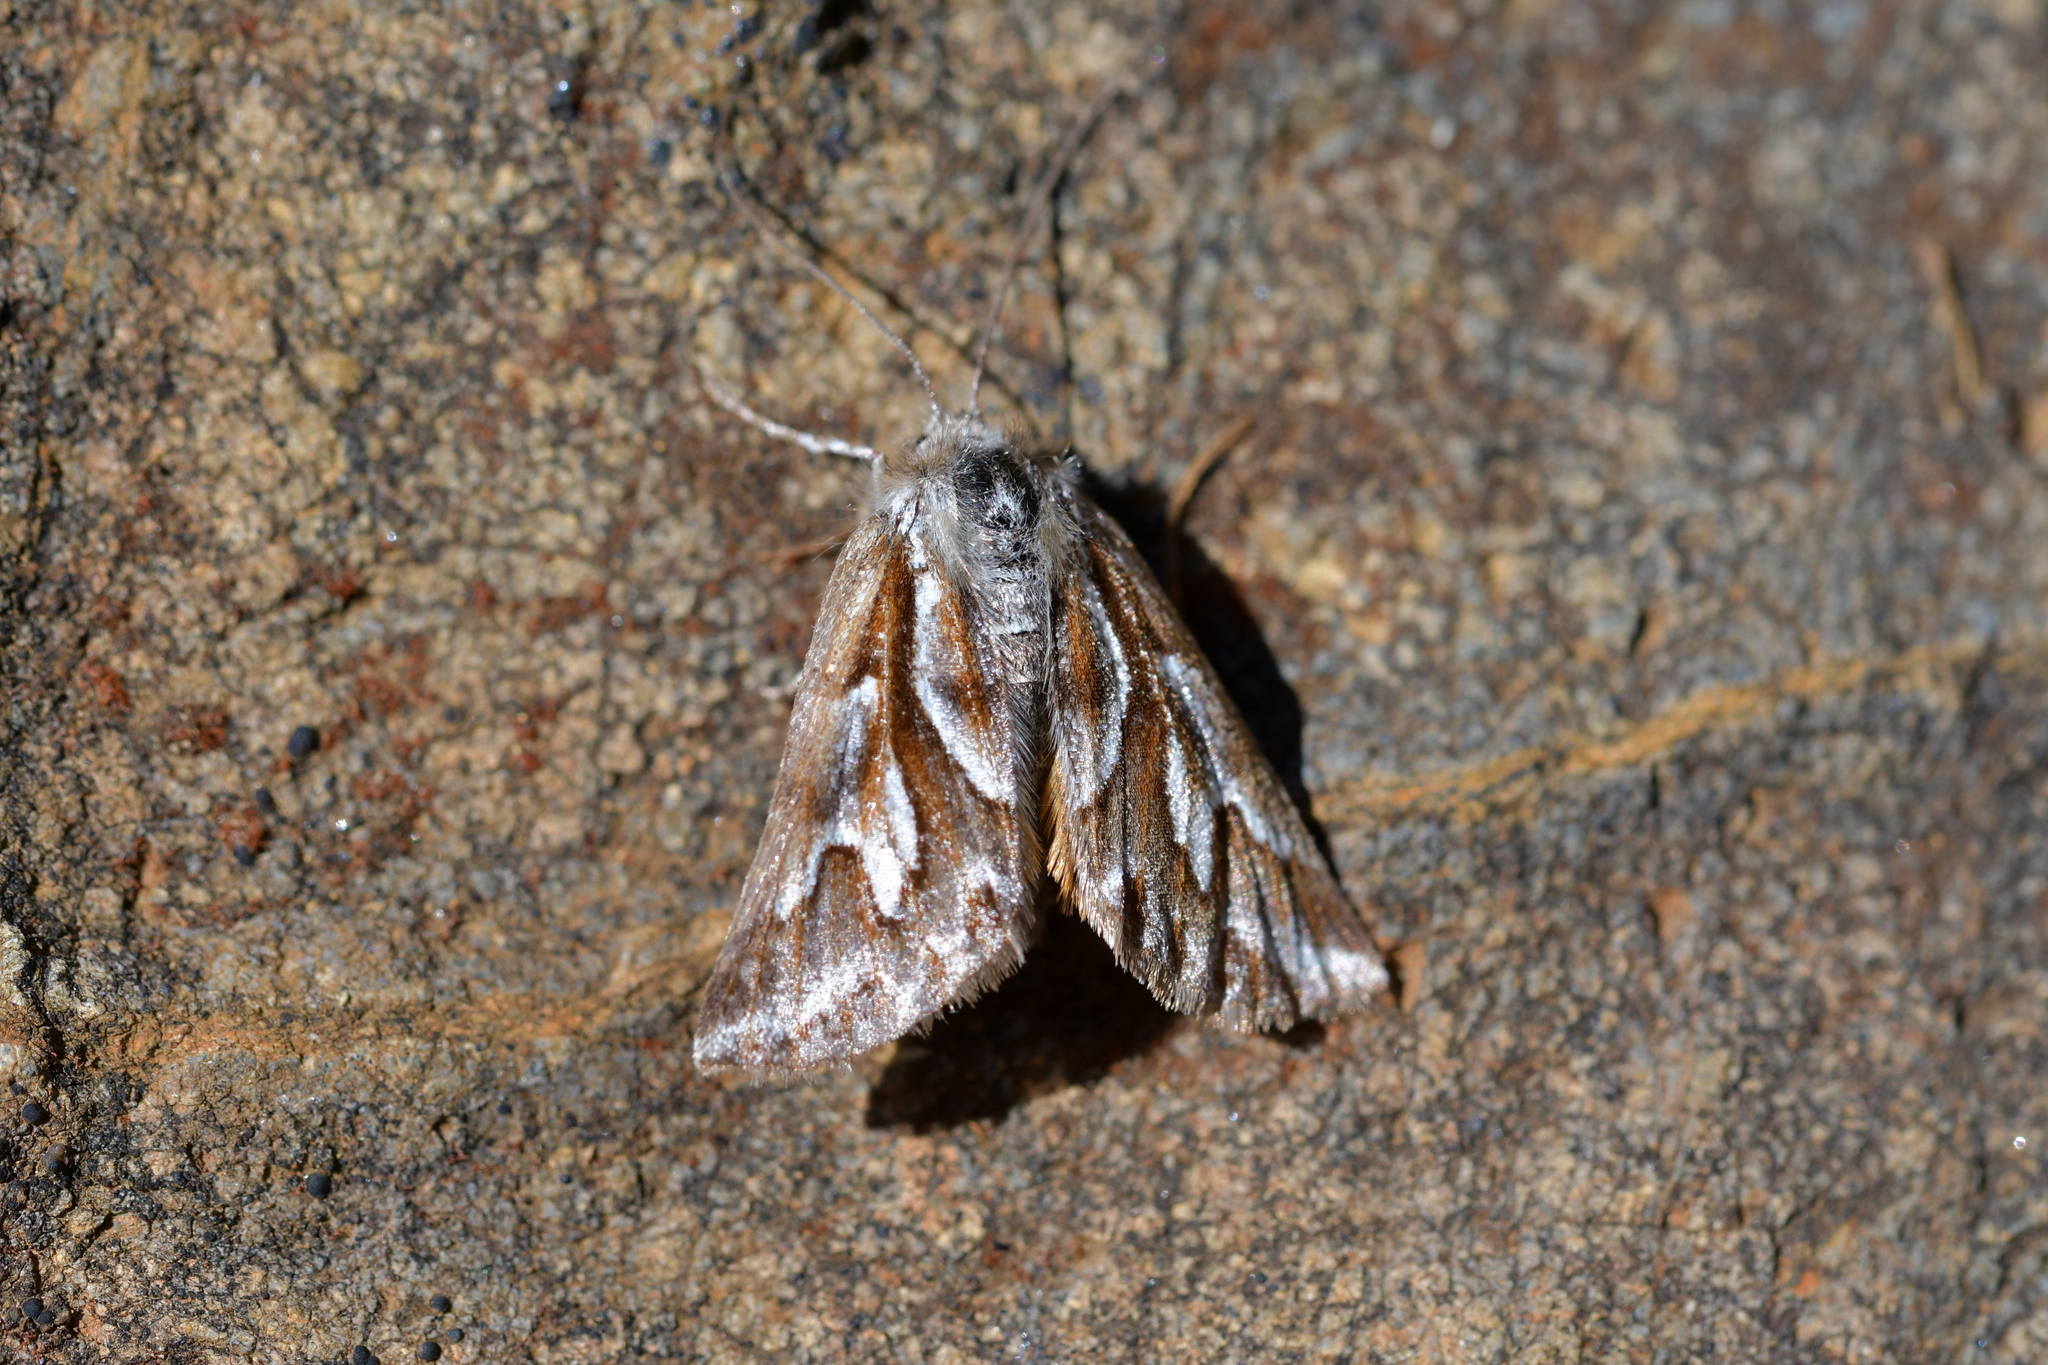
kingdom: Animalia
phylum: Arthropoda
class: Insecta
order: Lepidoptera
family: Geometridae
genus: Declana
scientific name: Declana
